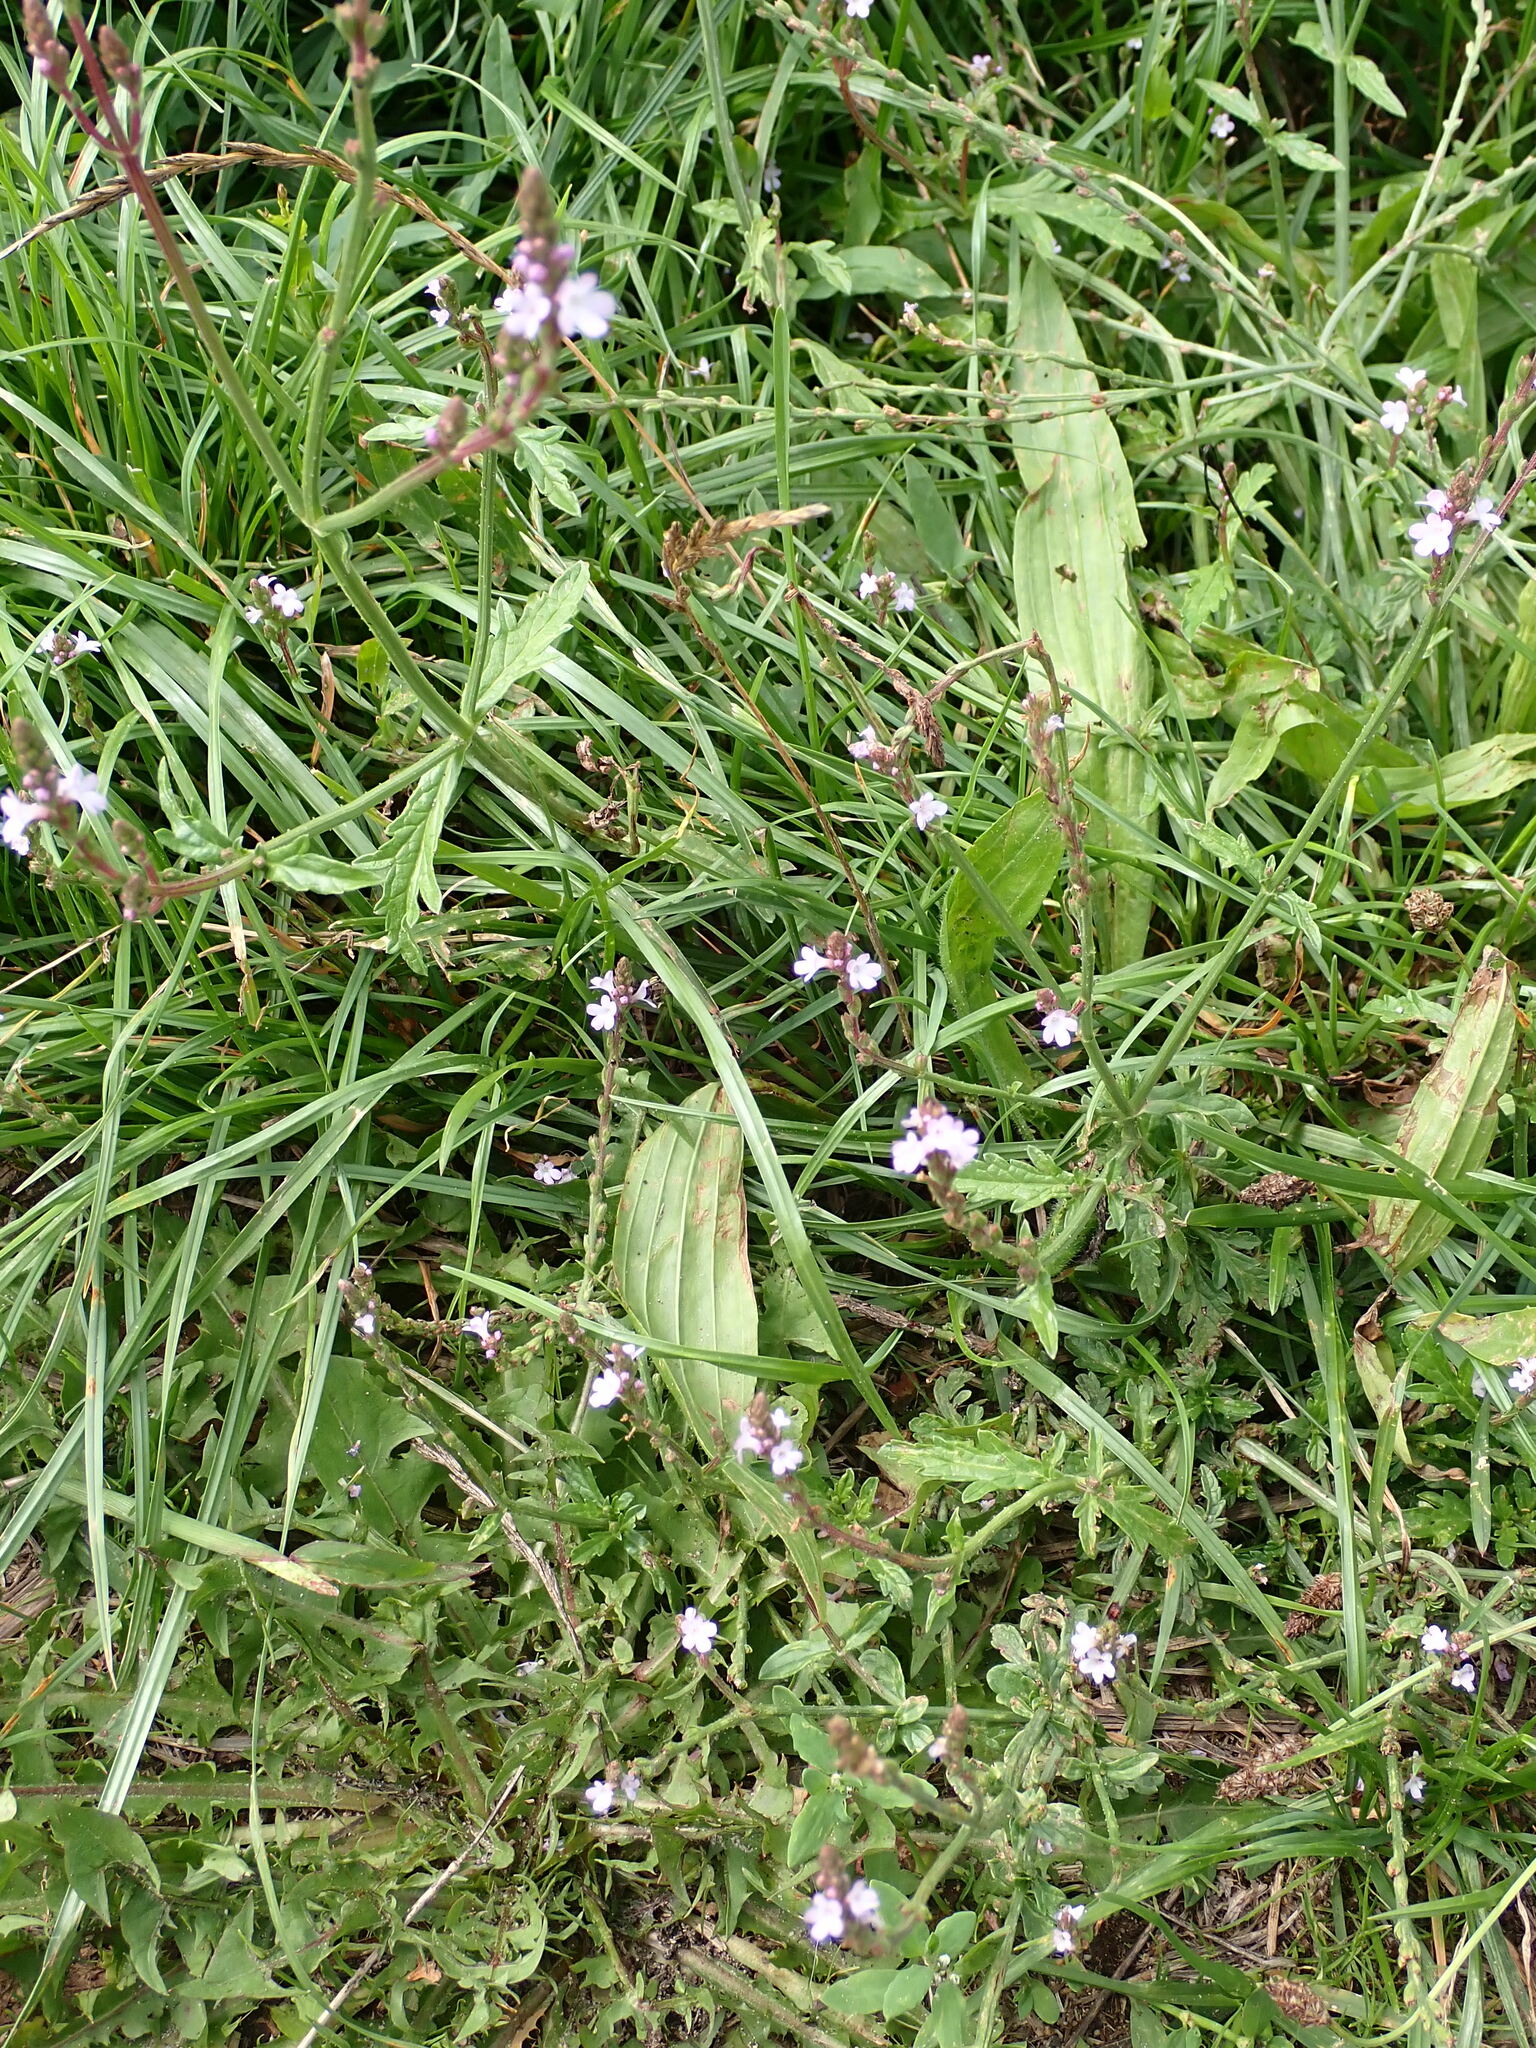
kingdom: Plantae
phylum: Tracheophyta
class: Magnoliopsida
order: Lamiales
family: Verbenaceae
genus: Verbena
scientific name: Verbena officinalis
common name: Vervain
